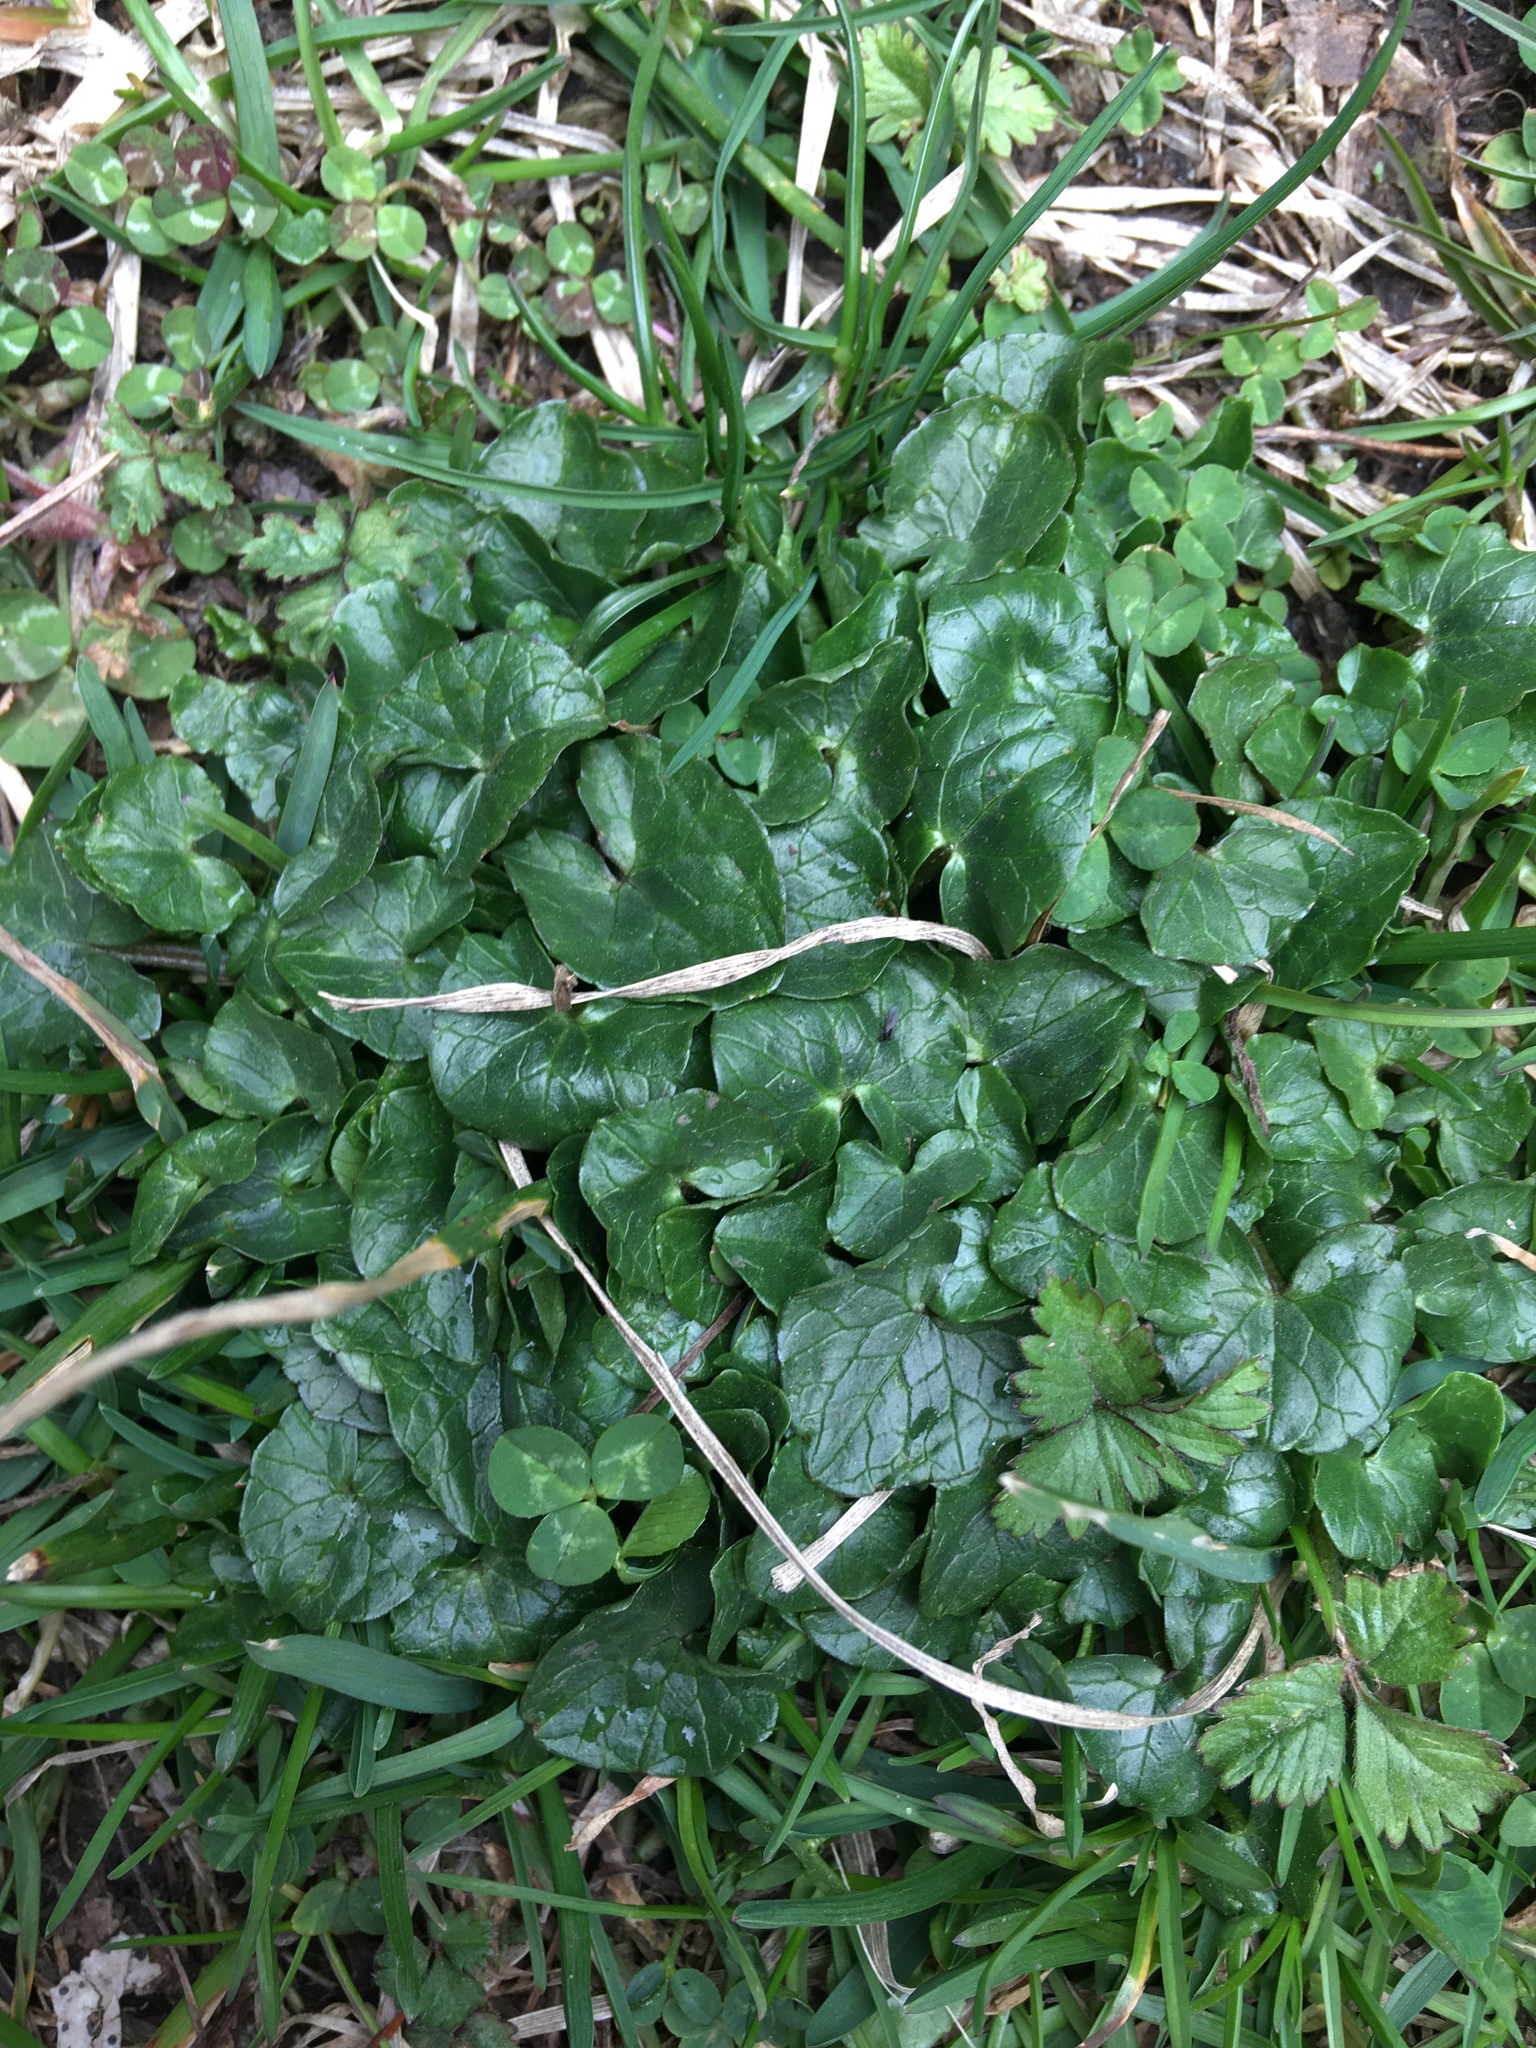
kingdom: Plantae
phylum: Tracheophyta
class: Magnoliopsida
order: Ranunculales
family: Ranunculaceae
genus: Ficaria
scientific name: Ficaria verna
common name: Lesser celandine
